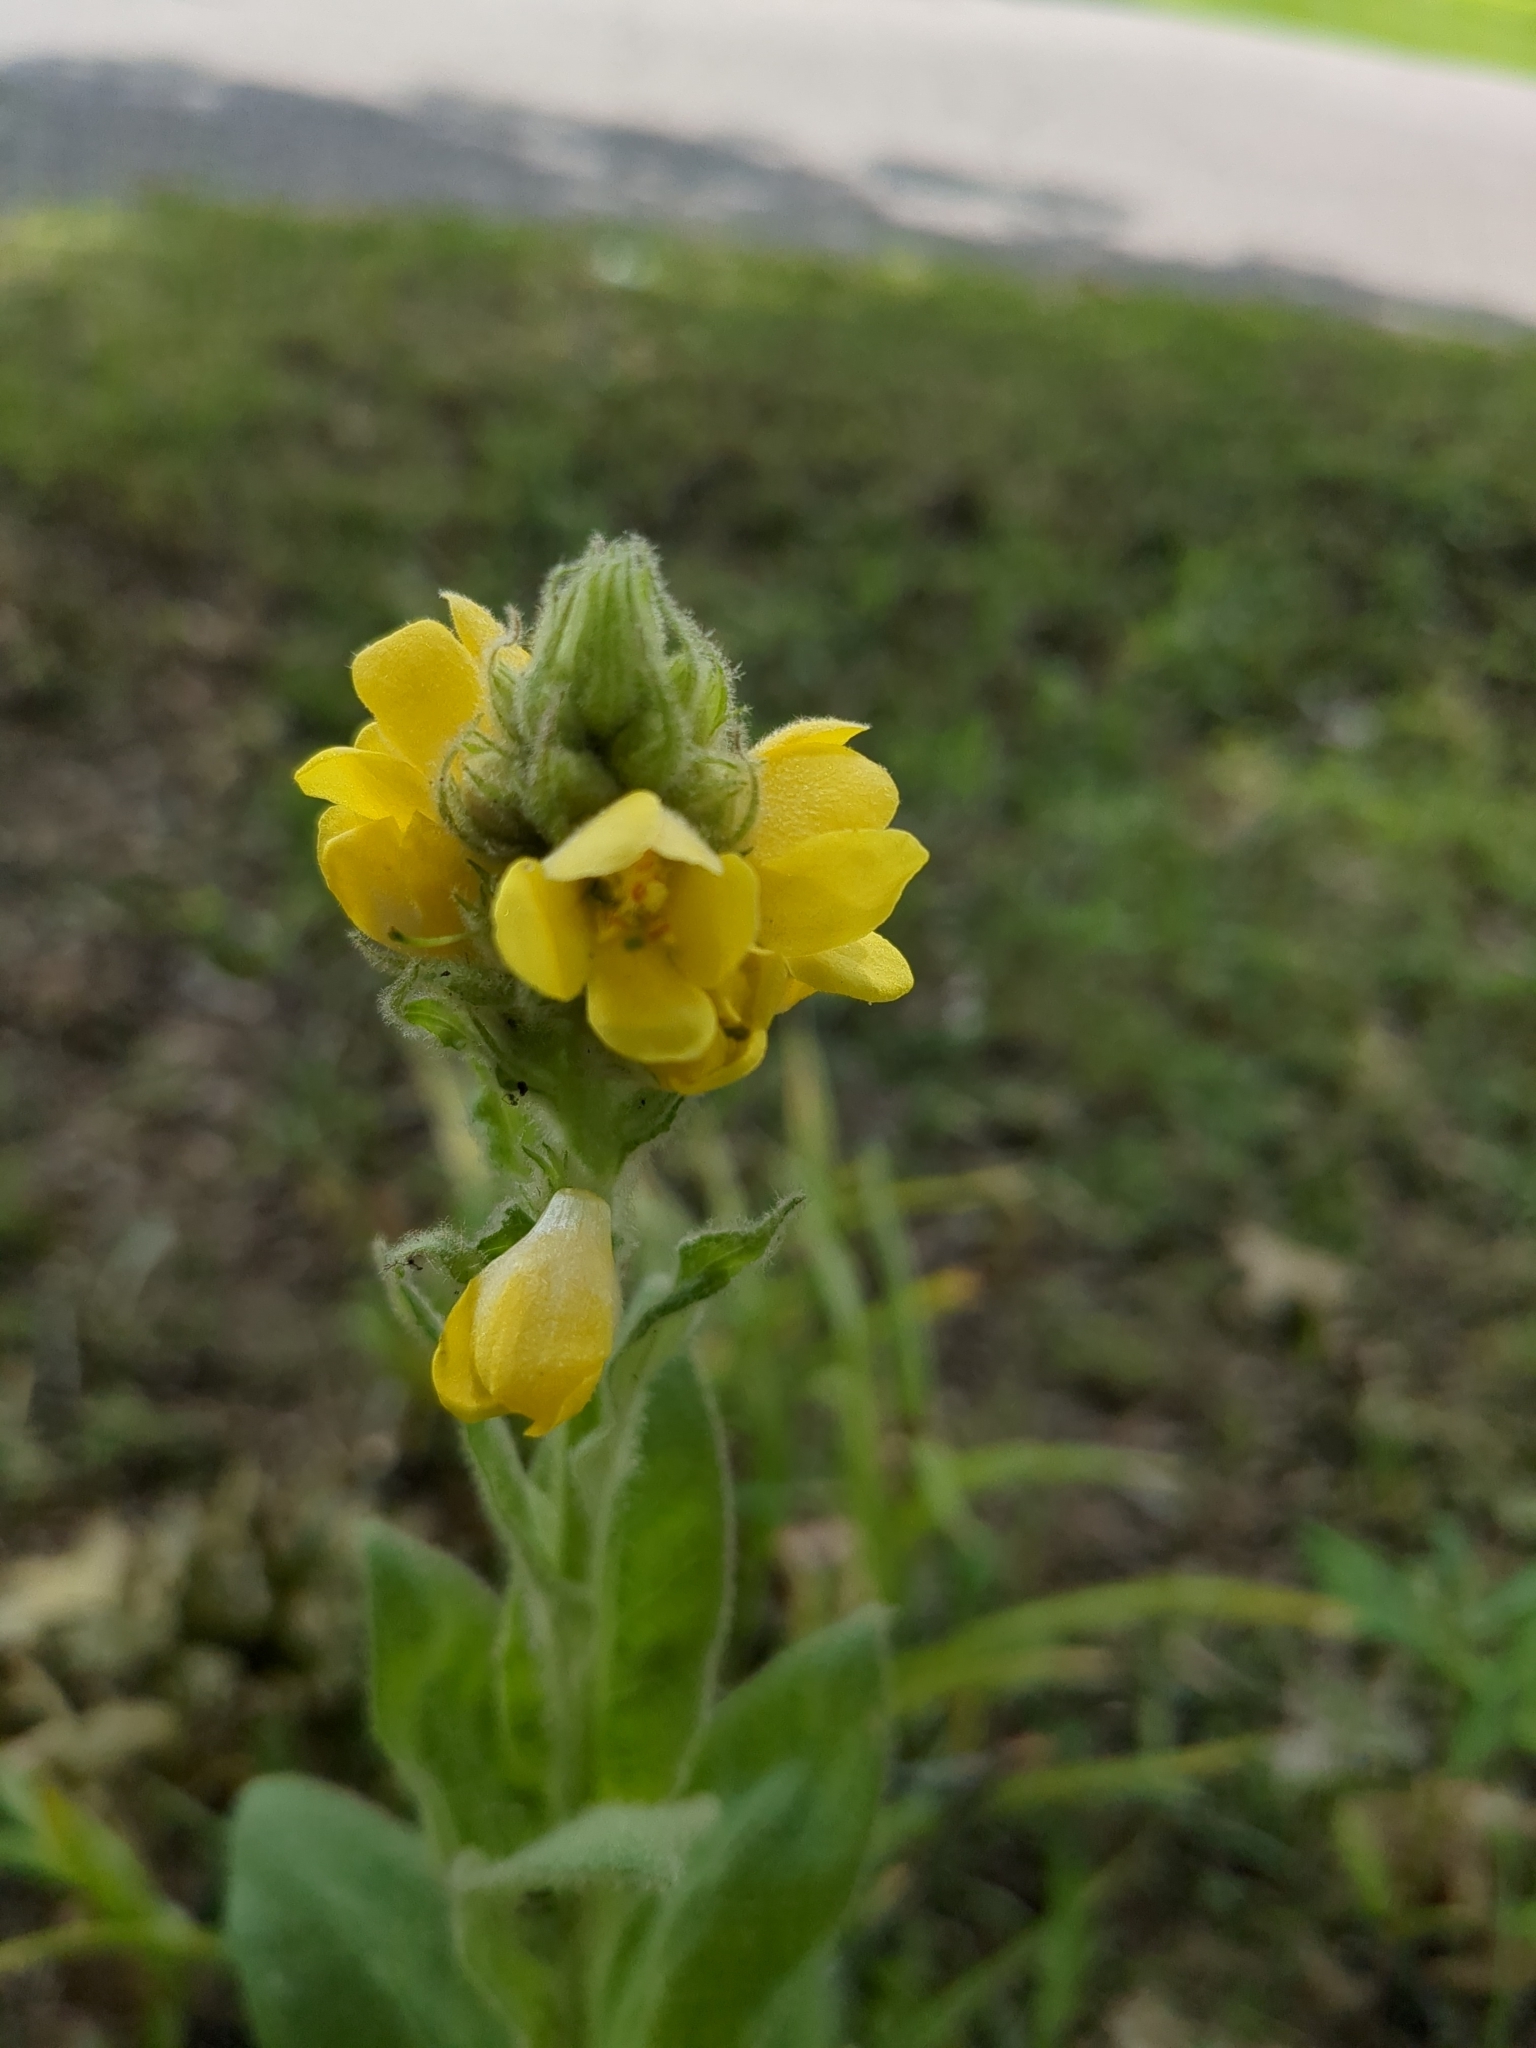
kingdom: Plantae
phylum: Tracheophyta
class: Magnoliopsida
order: Lamiales
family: Scrophulariaceae
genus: Verbascum
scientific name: Verbascum thapsus
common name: Common mullein
